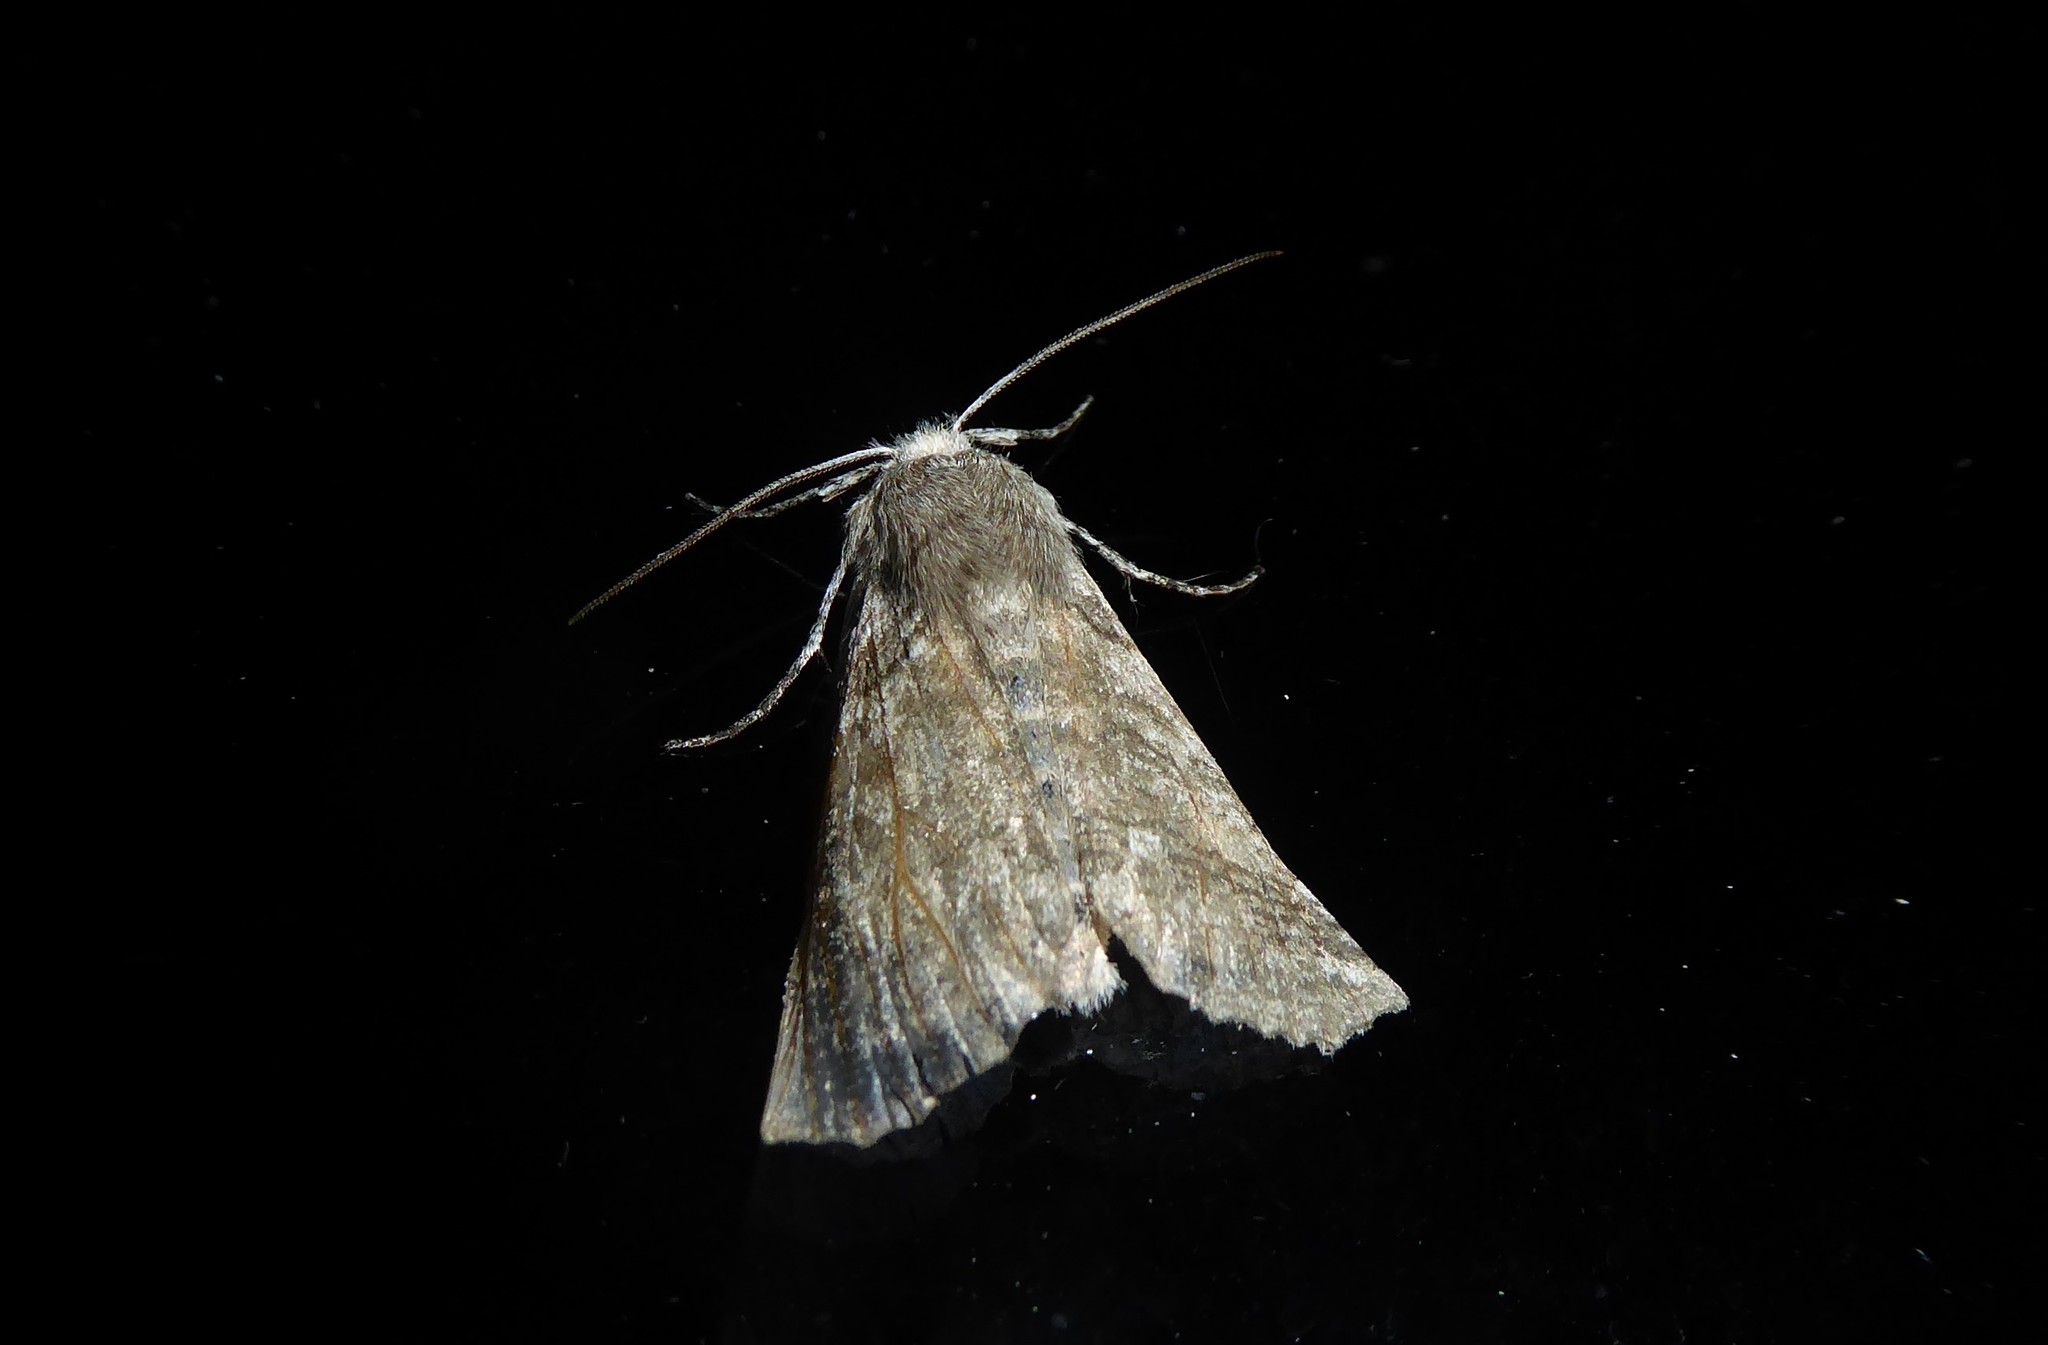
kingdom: Animalia
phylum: Arthropoda
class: Insecta
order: Lepidoptera
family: Geometridae
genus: Declana
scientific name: Declana
